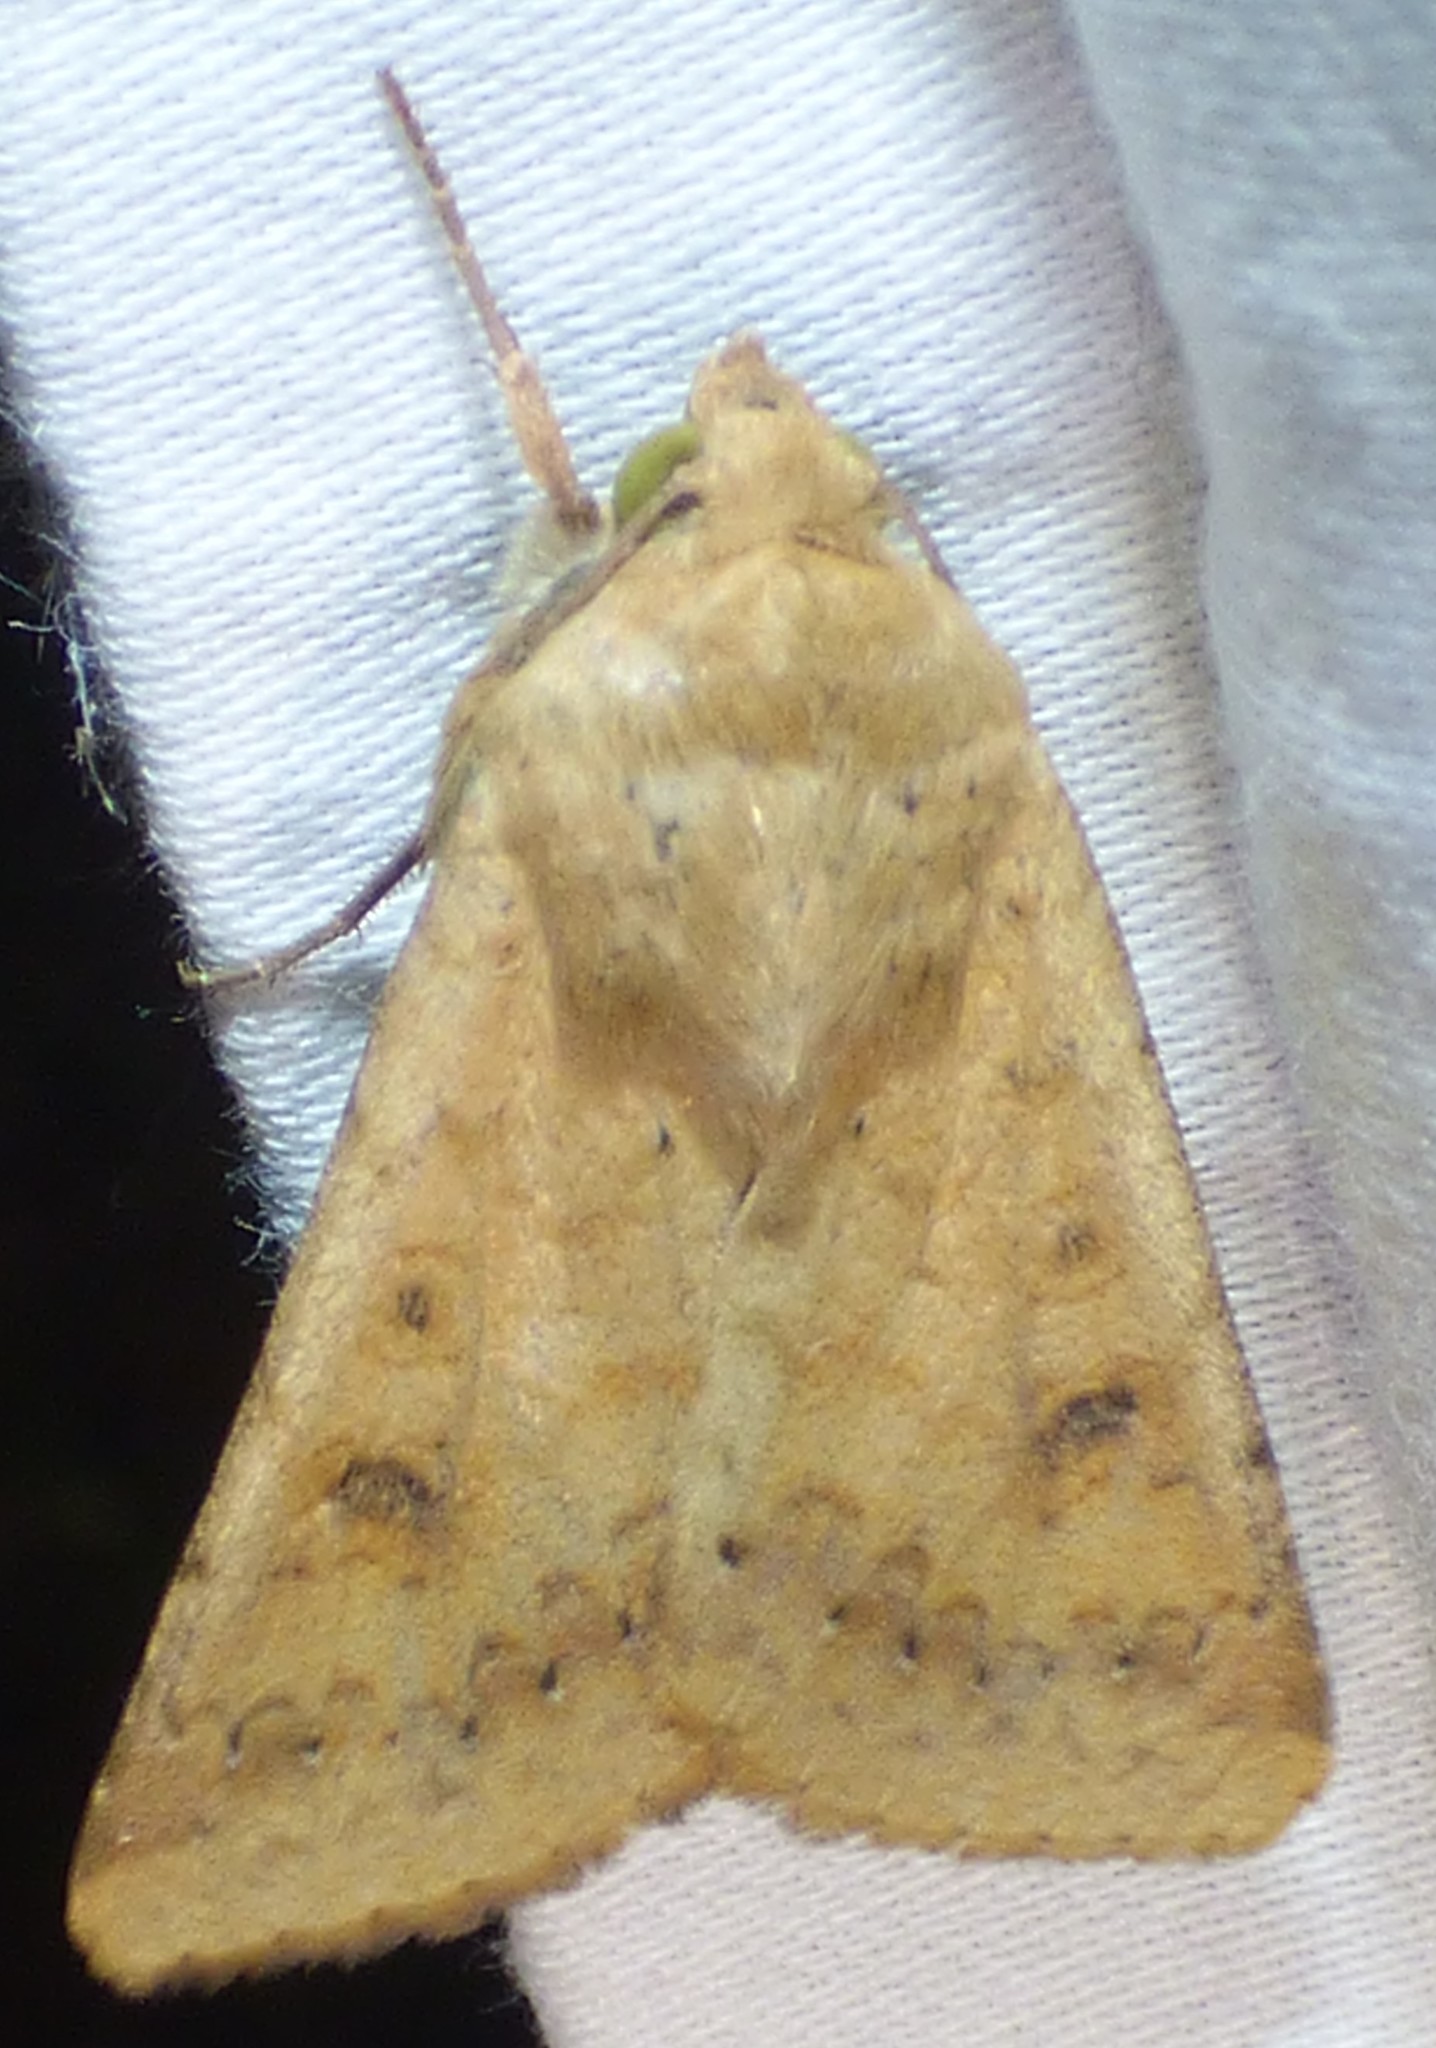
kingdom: Animalia
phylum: Arthropoda
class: Insecta
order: Lepidoptera
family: Noctuidae
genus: Helicoverpa
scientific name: Helicoverpa zea
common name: Bollworm
